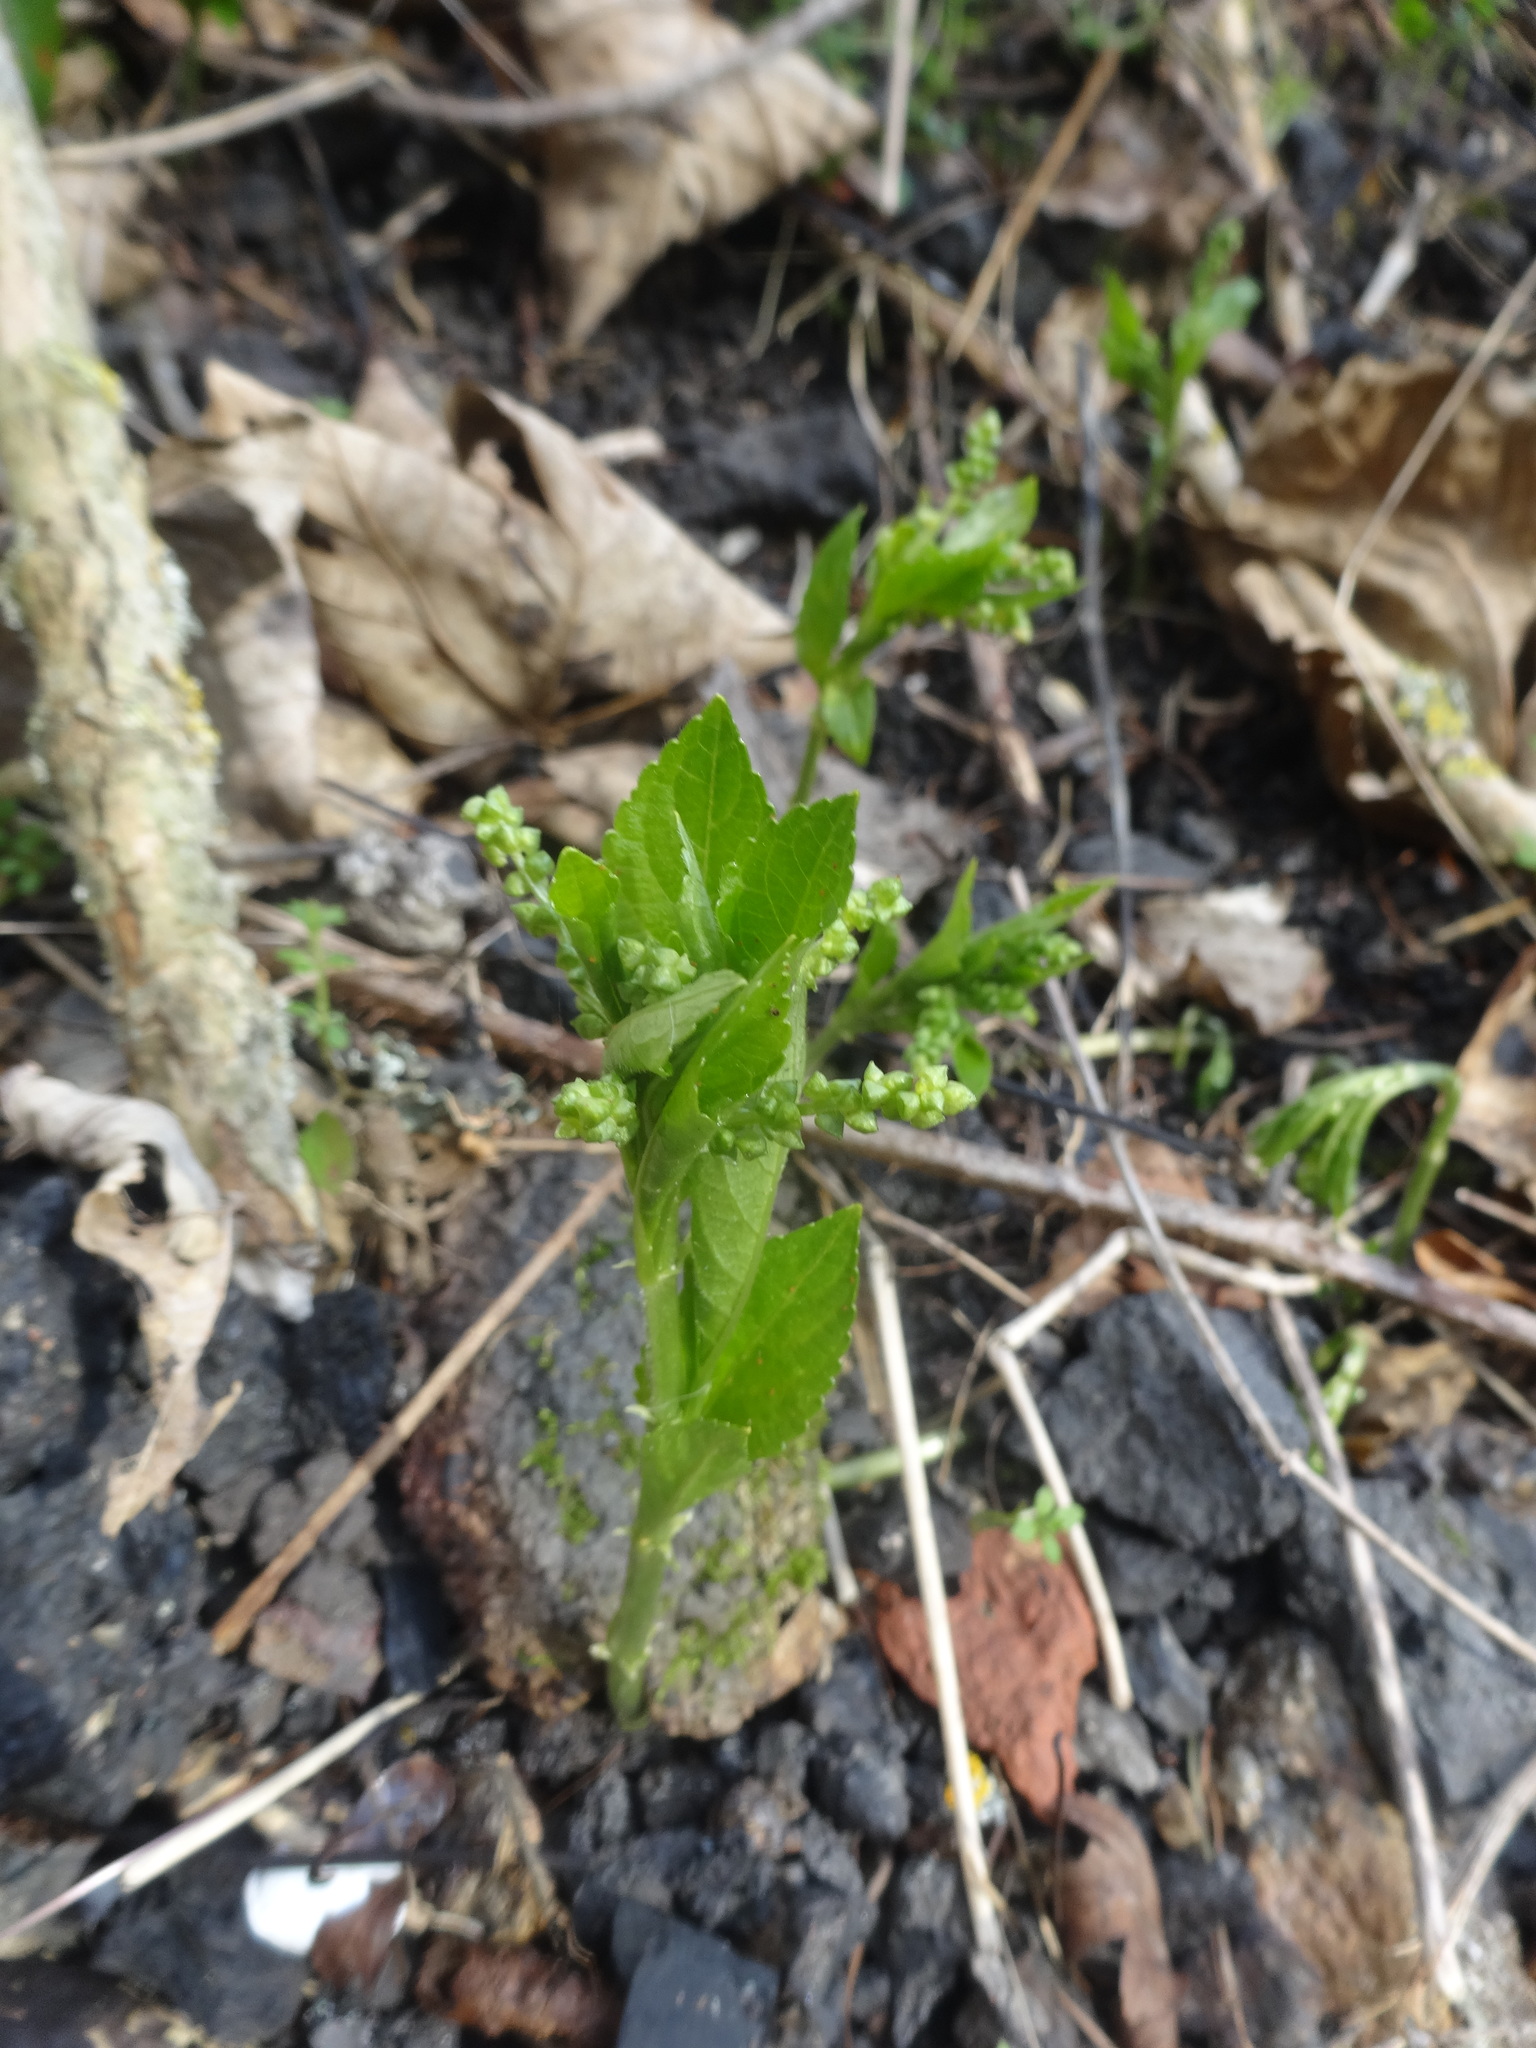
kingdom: Plantae
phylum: Tracheophyta
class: Magnoliopsida
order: Malpighiales
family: Euphorbiaceae
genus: Mercurialis
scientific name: Mercurialis perennis
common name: Dog mercury
